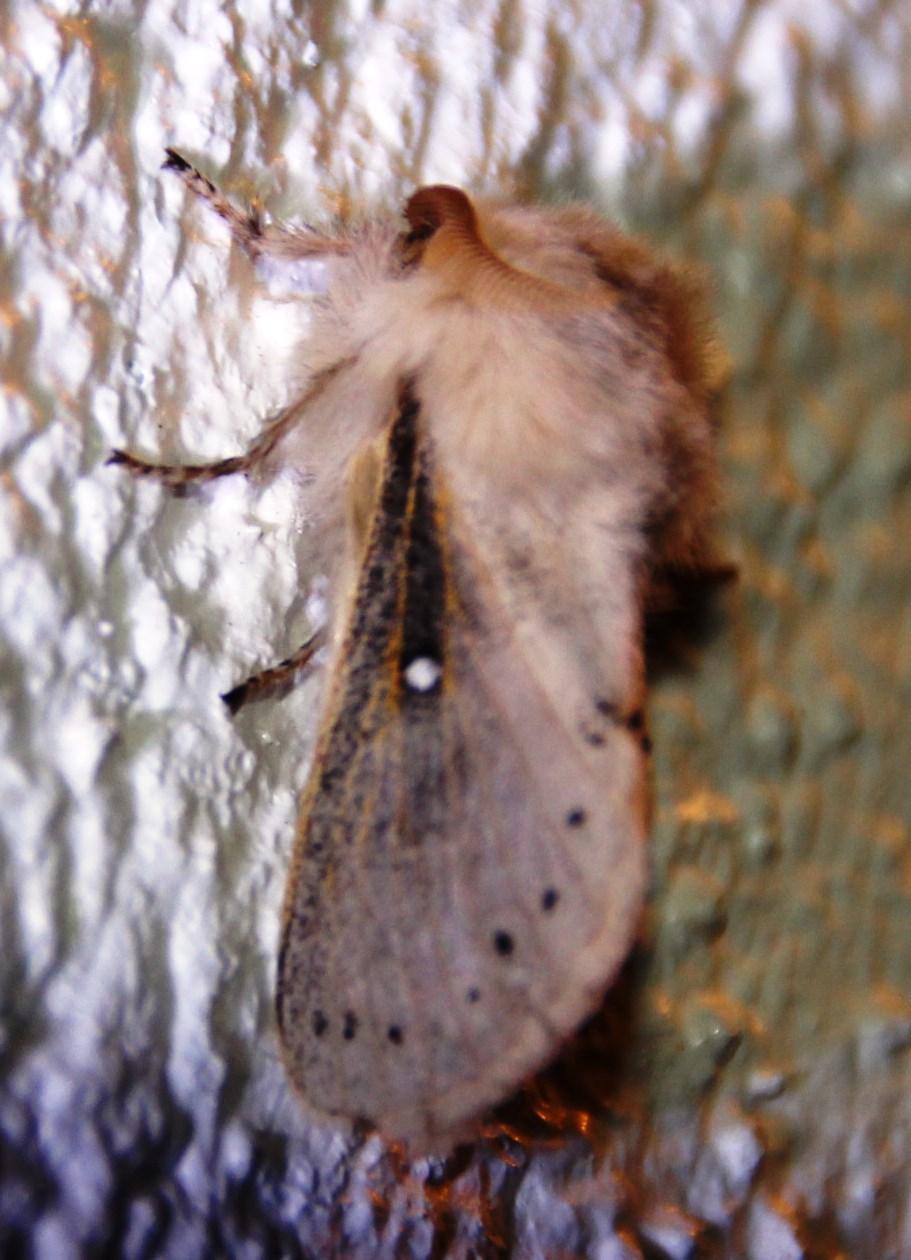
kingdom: Animalia
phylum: Arthropoda
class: Insecta
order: Lepidoptera
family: Lasiocampidae
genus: Bombycopsis
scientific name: Bombycopsis tephrobaphes
